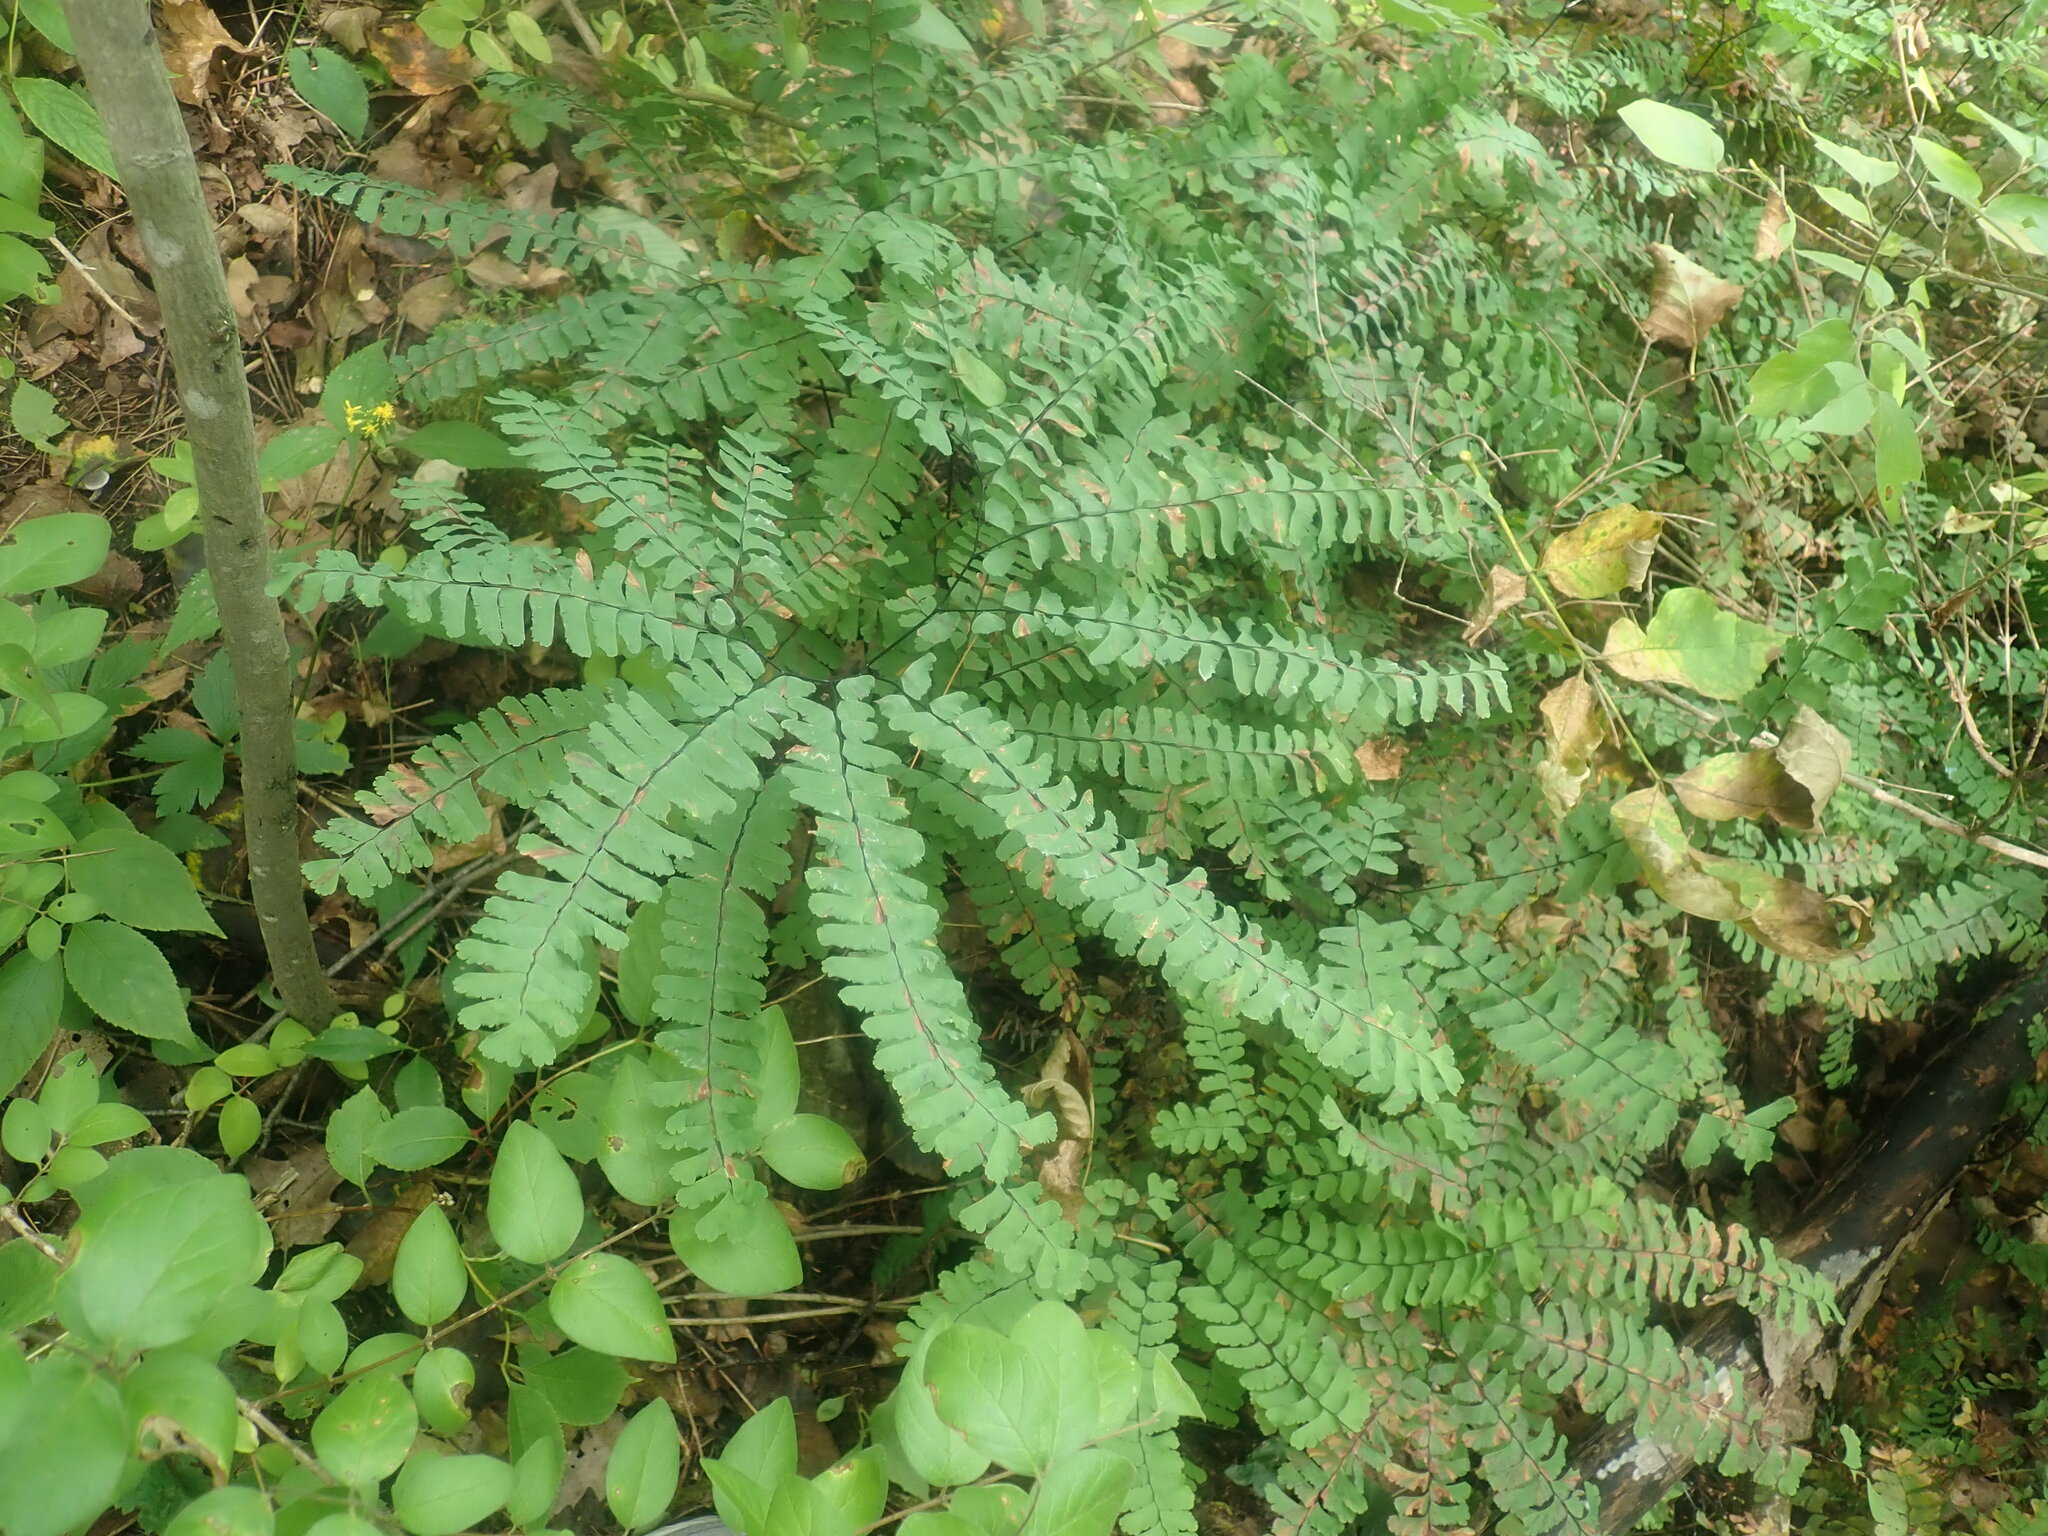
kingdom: Plantae
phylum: Tracheophyta
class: Polypodiopsida
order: Polypodiales
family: Pteridaceae
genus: Adiantum
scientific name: Adiantum pedatum
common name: Five-finger fern
